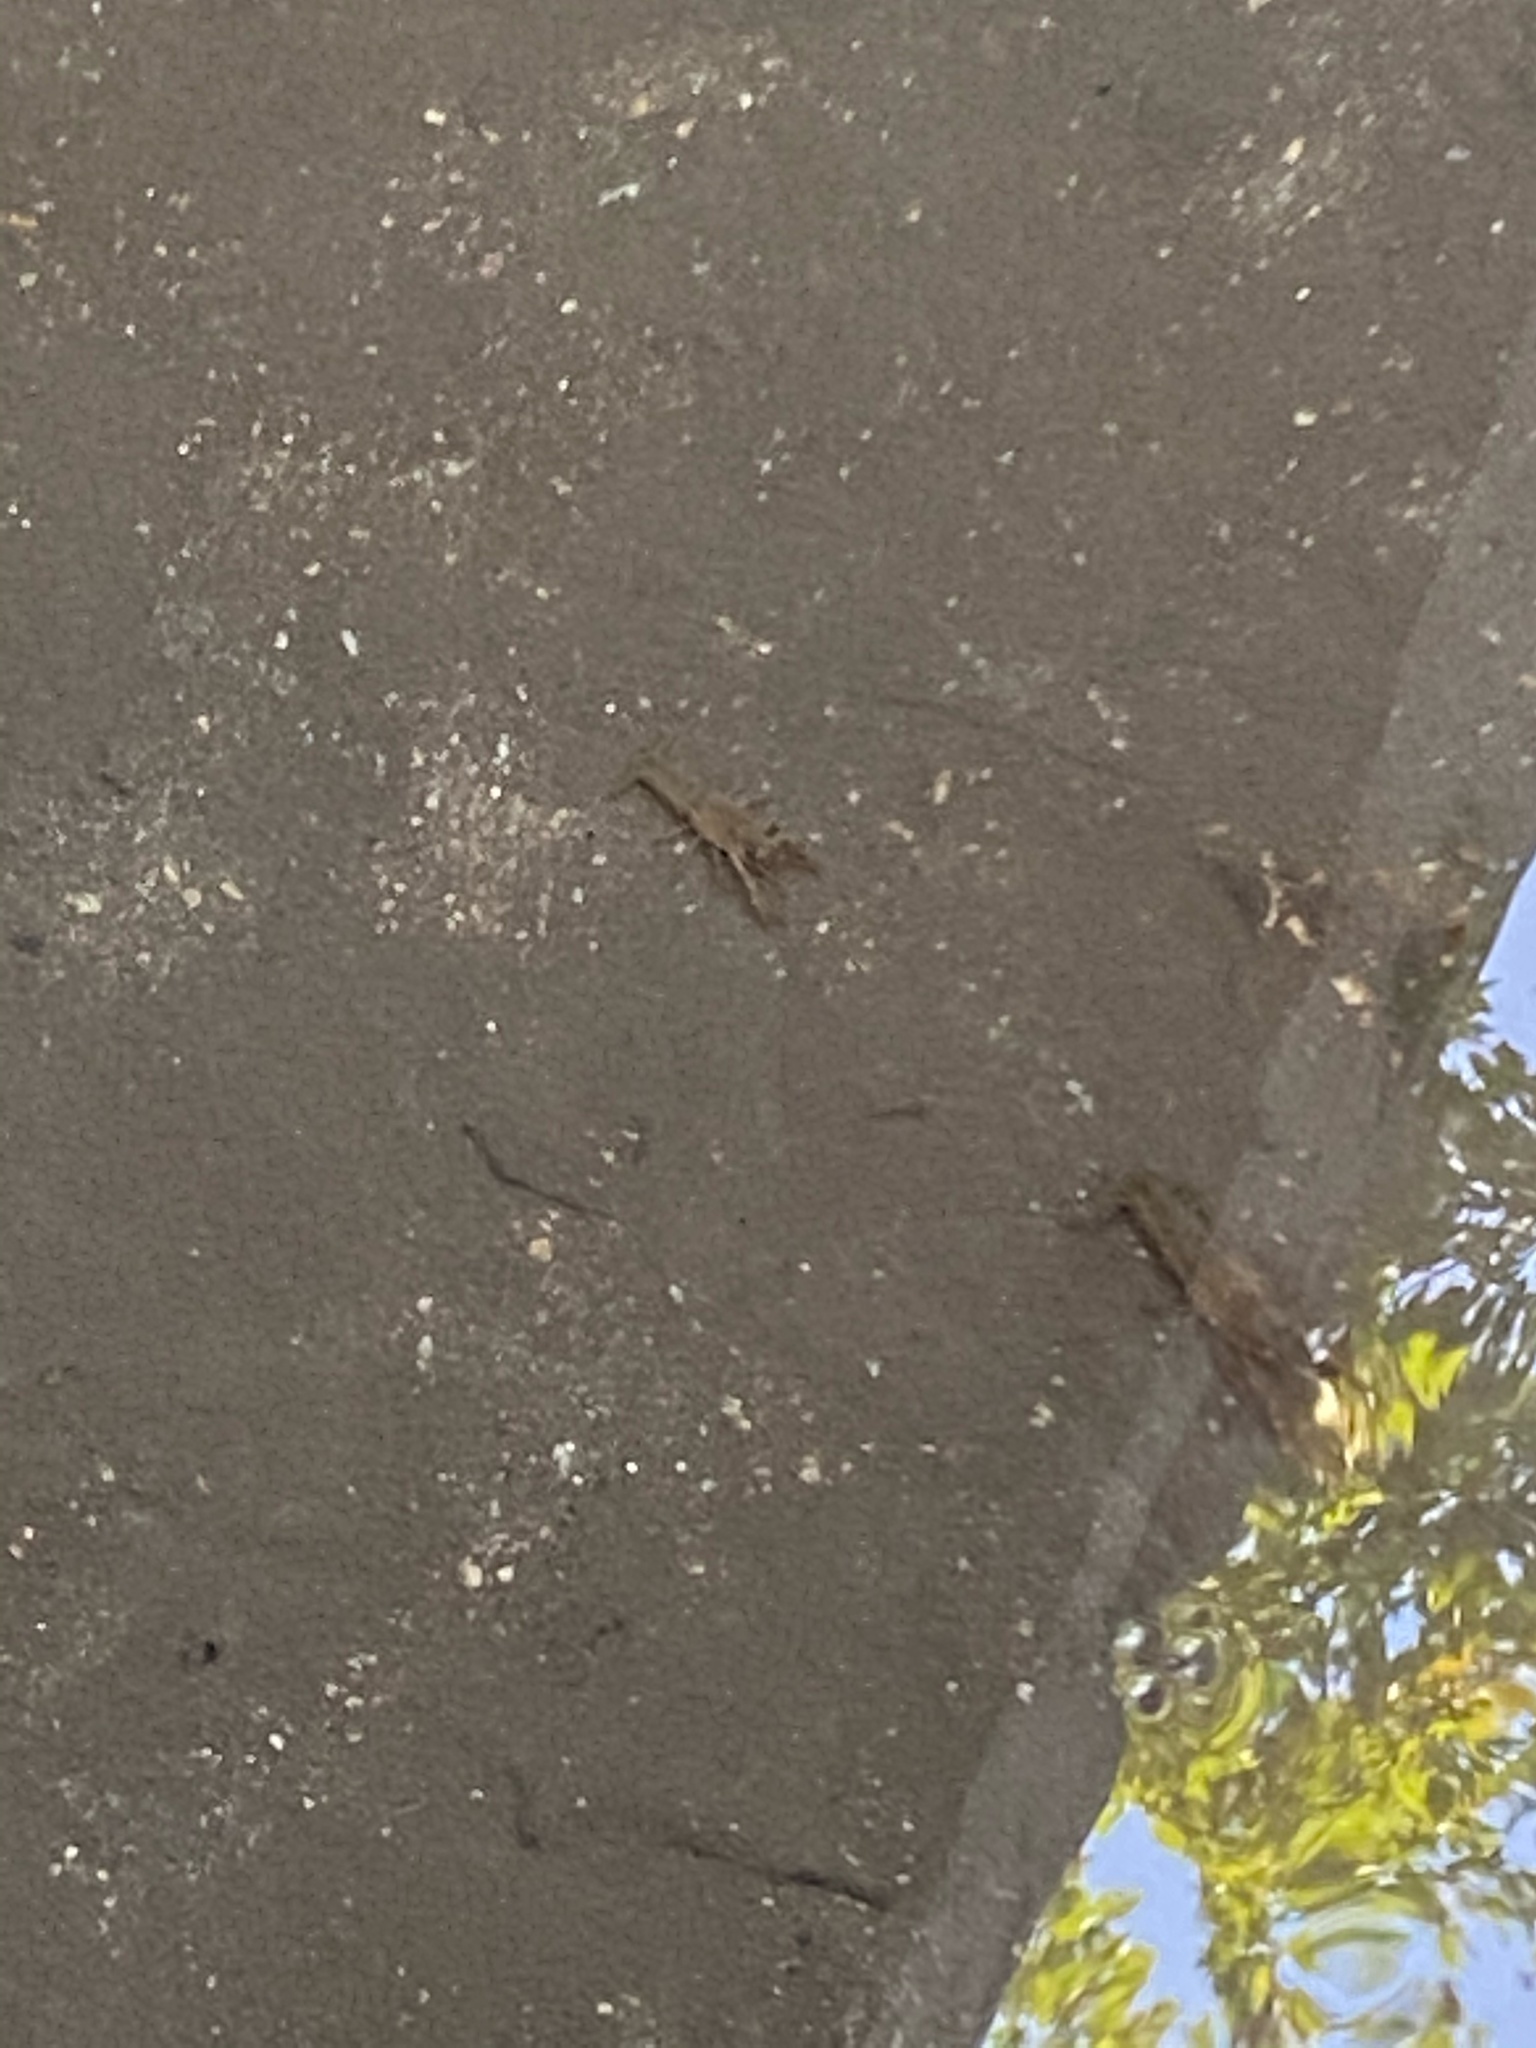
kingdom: Animalia
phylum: Arthropoda
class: Malacostraca
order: Decapoda
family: Cambaridae
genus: Procambarus
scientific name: Procambarus clarkii
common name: Red swamp crayfish
